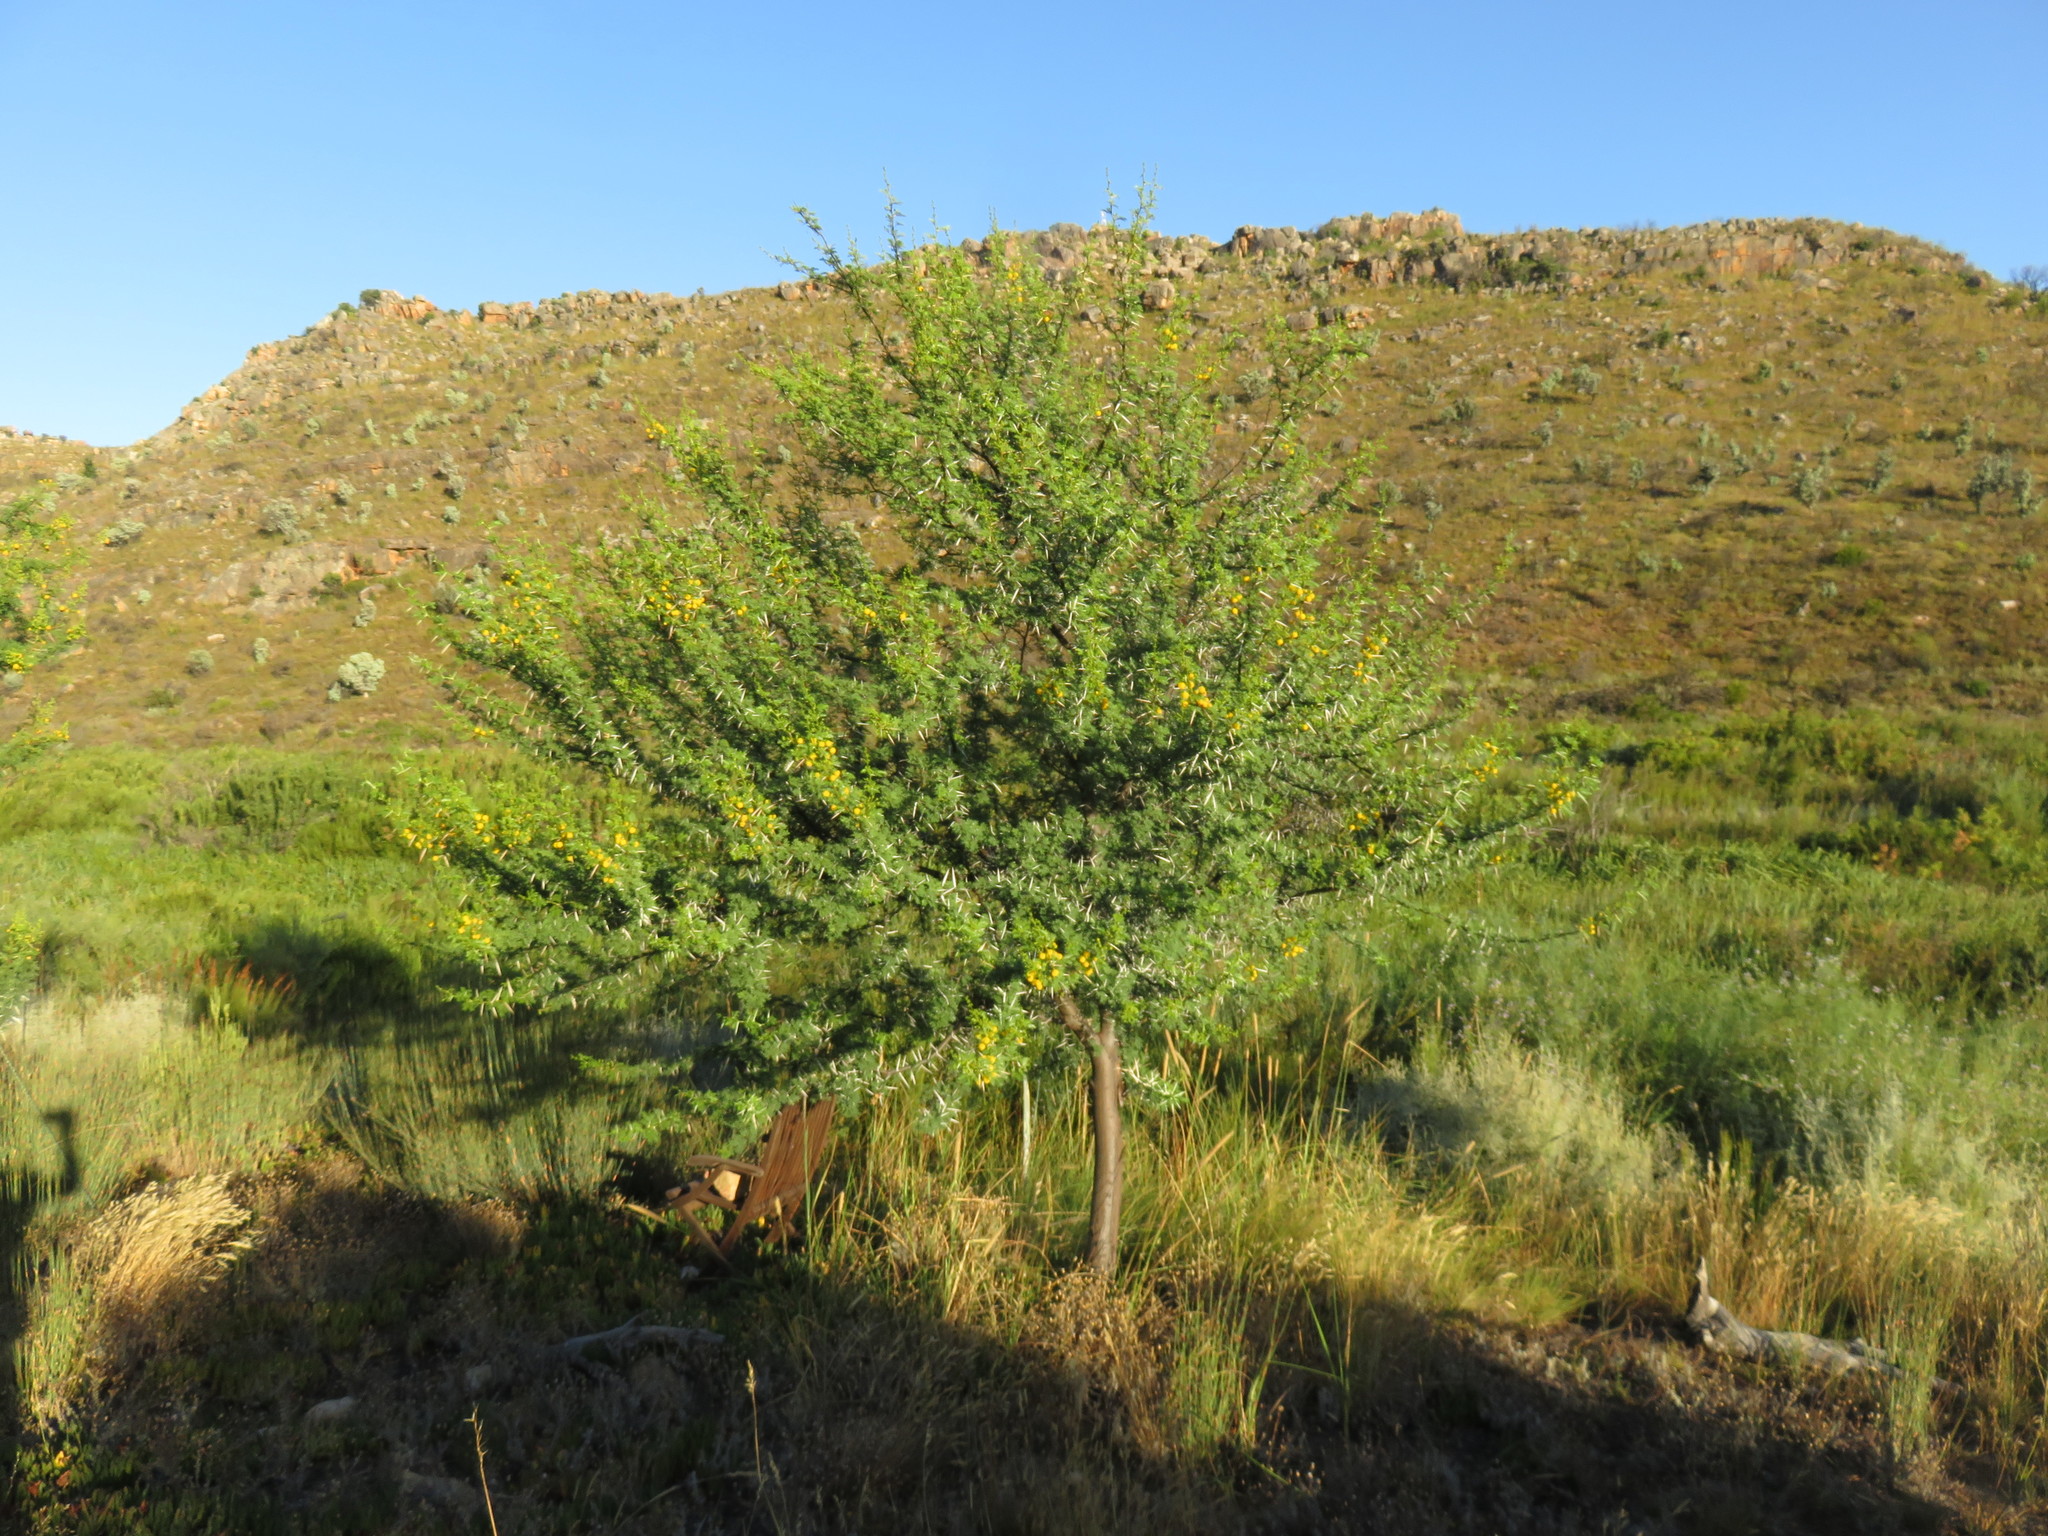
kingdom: Plantae
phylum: Tracheophyta
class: Magnoliopsida
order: Fabales
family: Fabaceae
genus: Vachellia
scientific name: Vachellia karroo
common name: Sweet thorn
